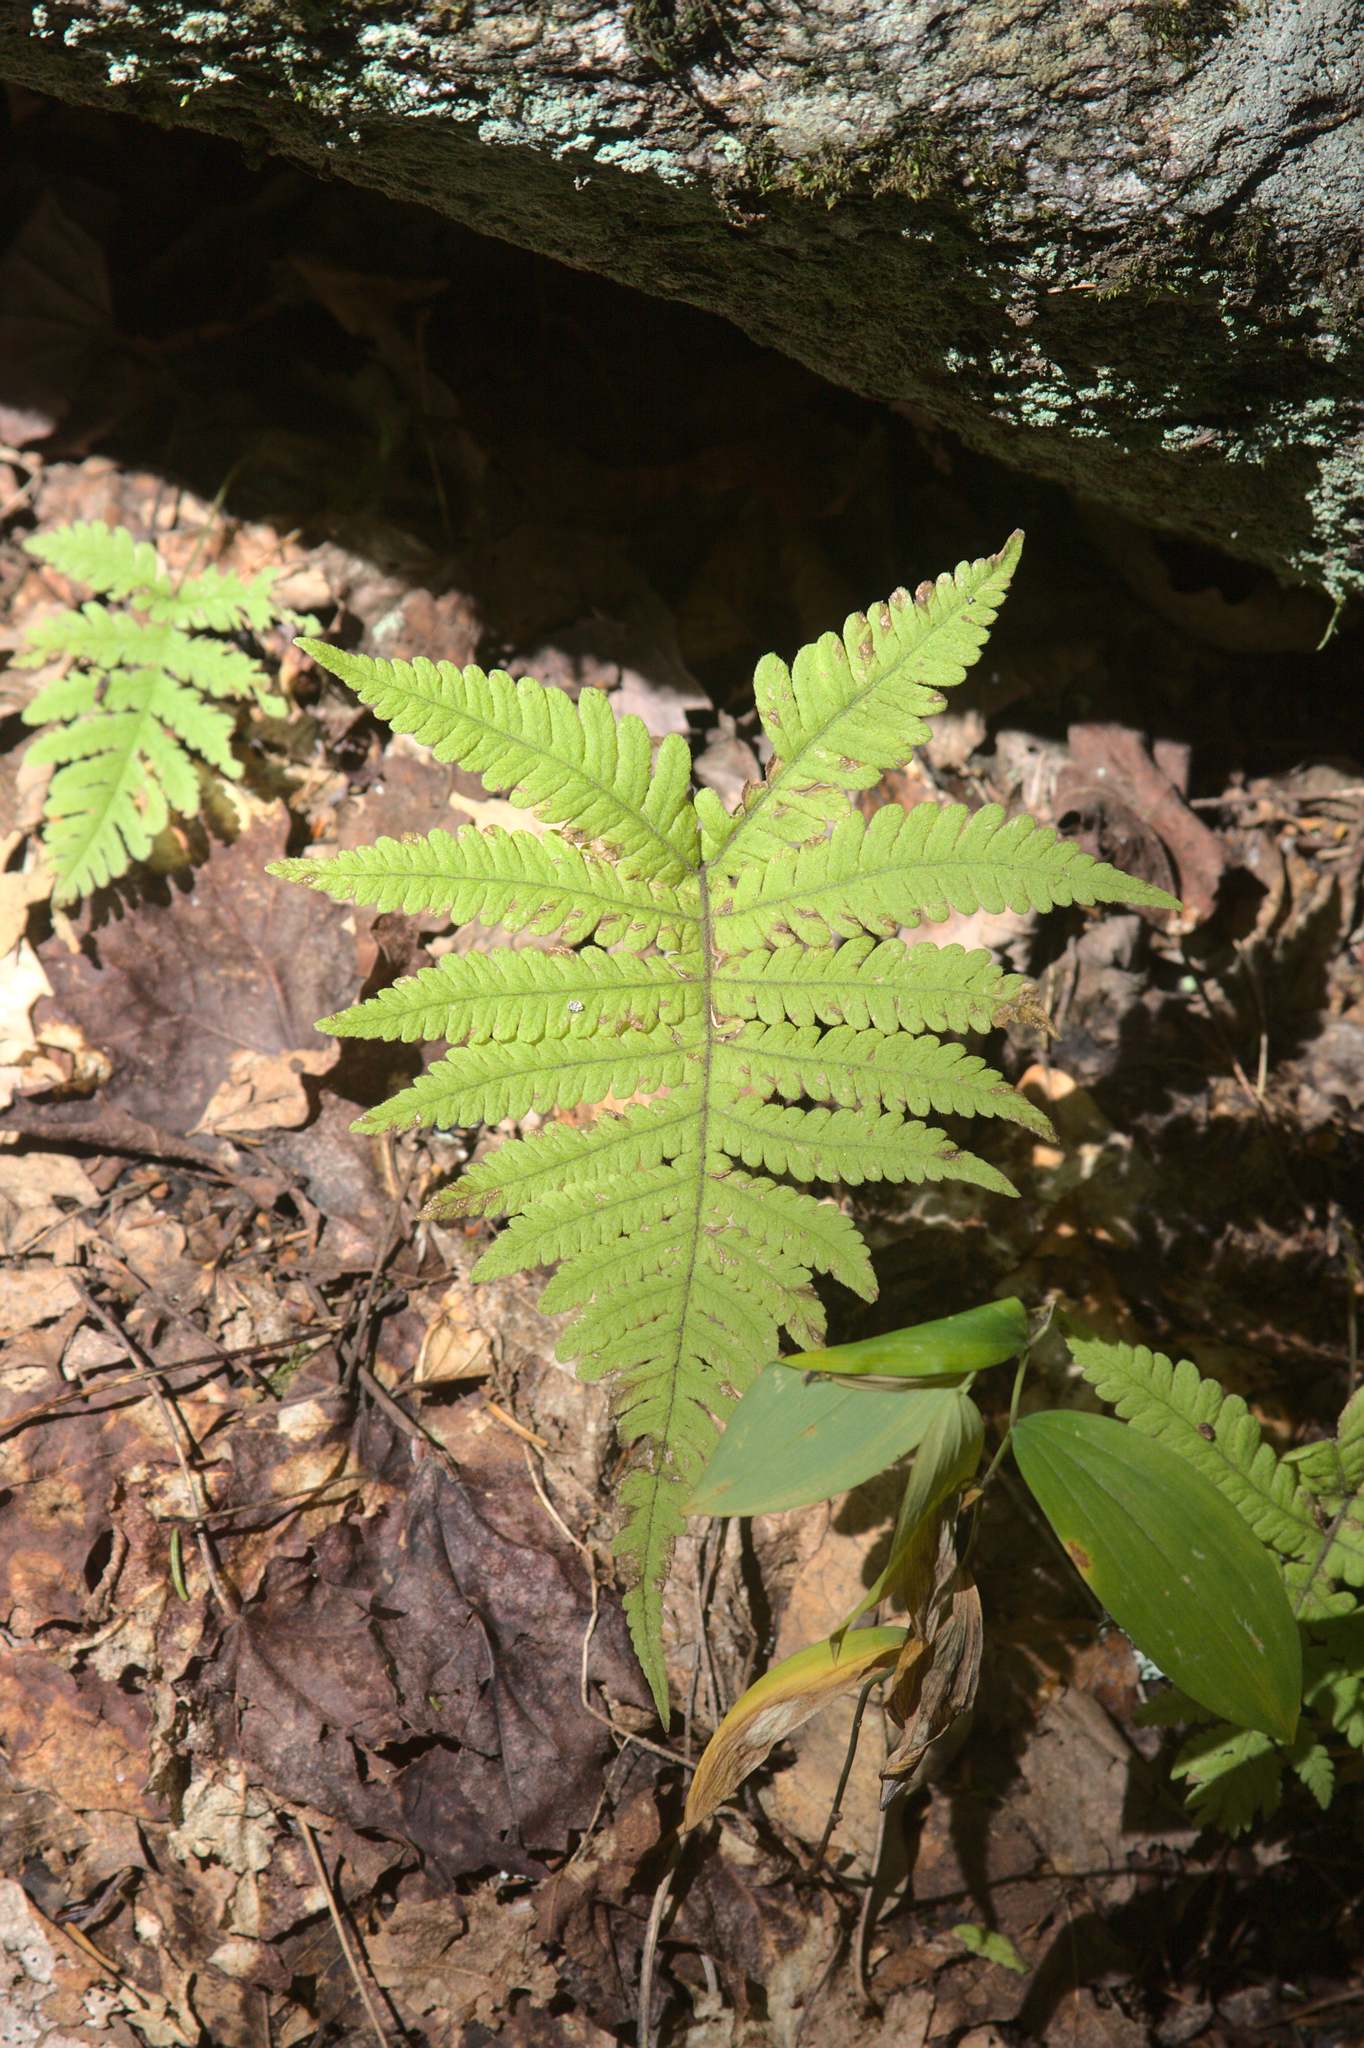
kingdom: Plantae
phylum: Tracheophyta
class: Polypodiopsida
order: Polypodiales
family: Thelypteridaceae
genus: Phegopteris
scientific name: Phegopteris connectilis
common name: Beech fern
